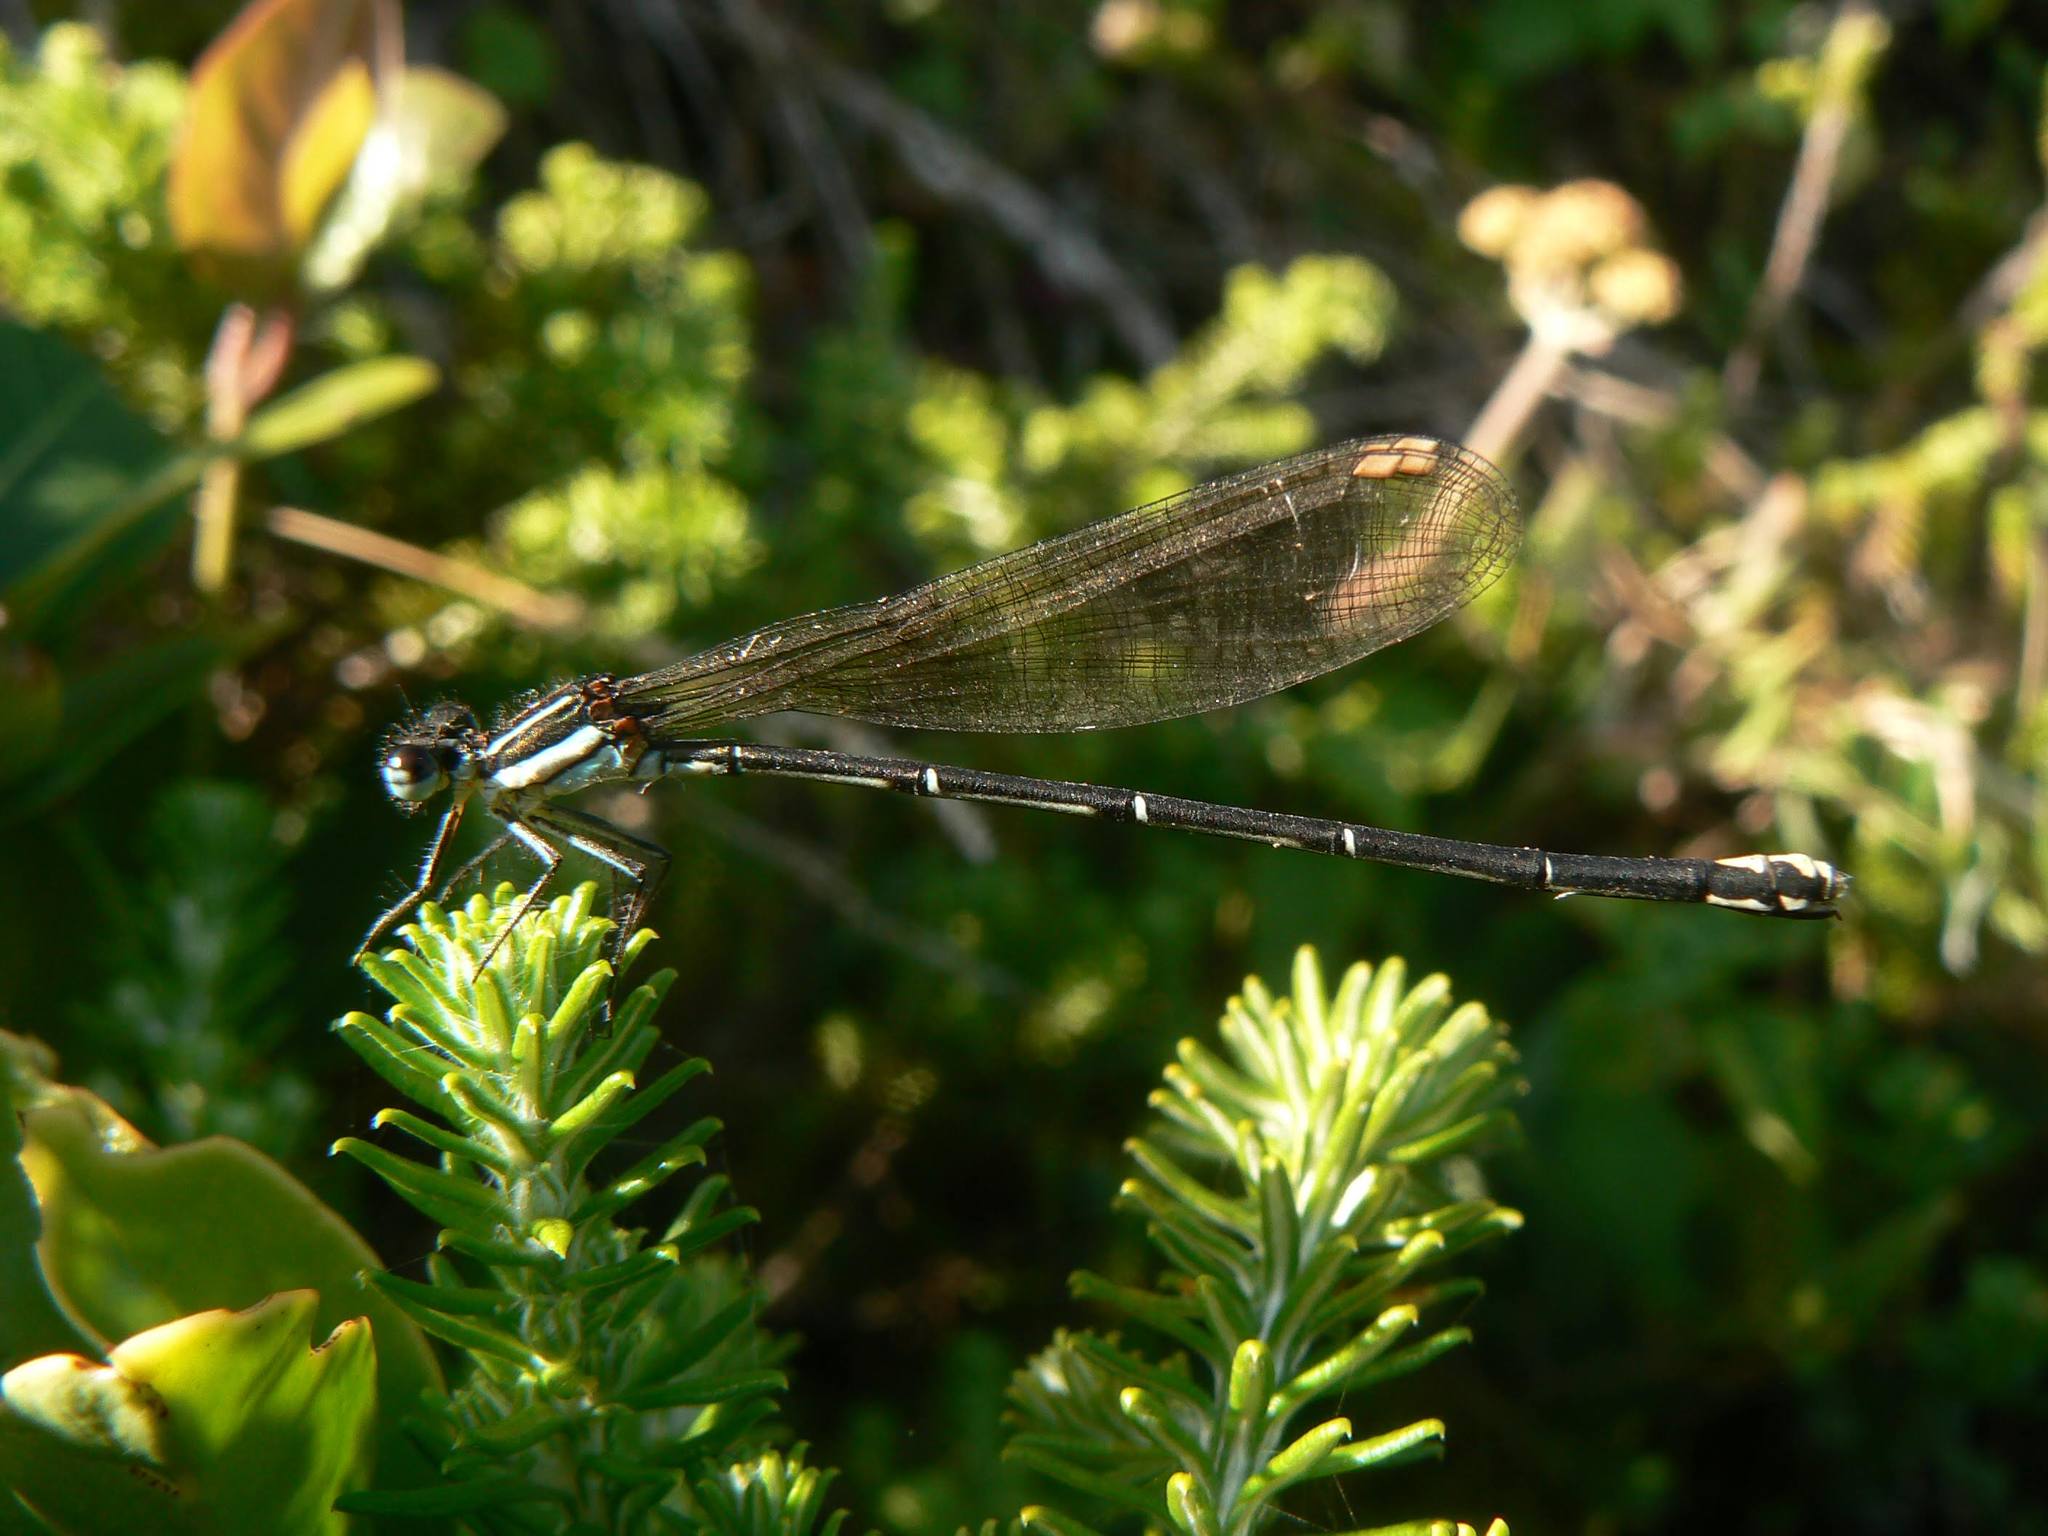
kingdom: Animalia
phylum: Arthropoda
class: Insecta
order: Odonata
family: Platycnemididae
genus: Allocnemis
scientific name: Allocnemis leucosticta
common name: Goldtail
